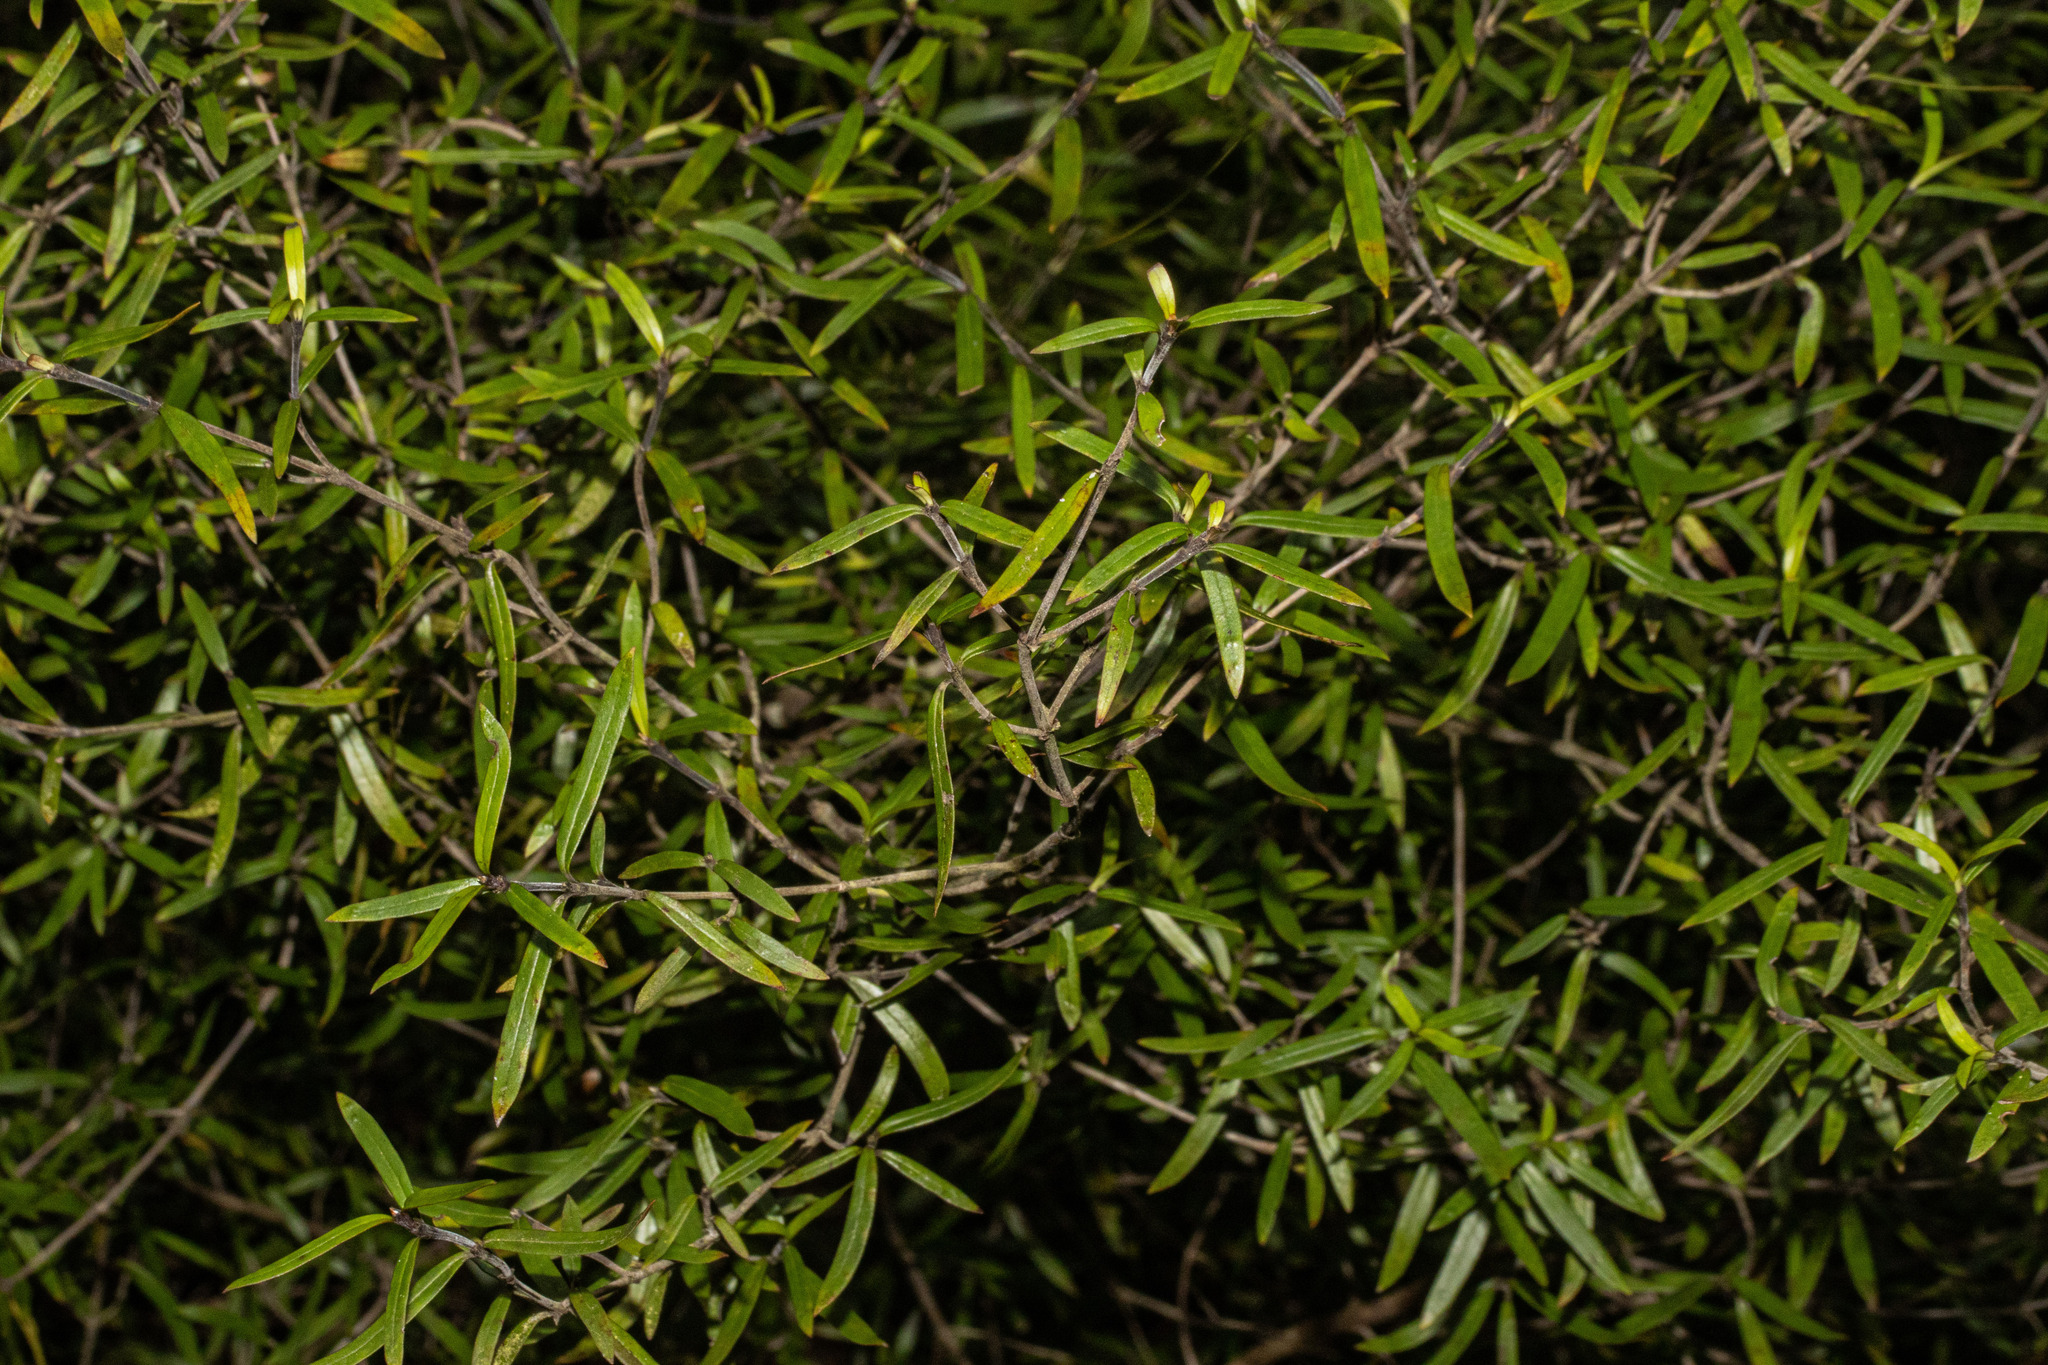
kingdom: Plantae
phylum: Tracheophyta
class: Magnoliopsida
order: Gentianales
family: Rubiaceae
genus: Coprosma
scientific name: Coprosma linariifolia
